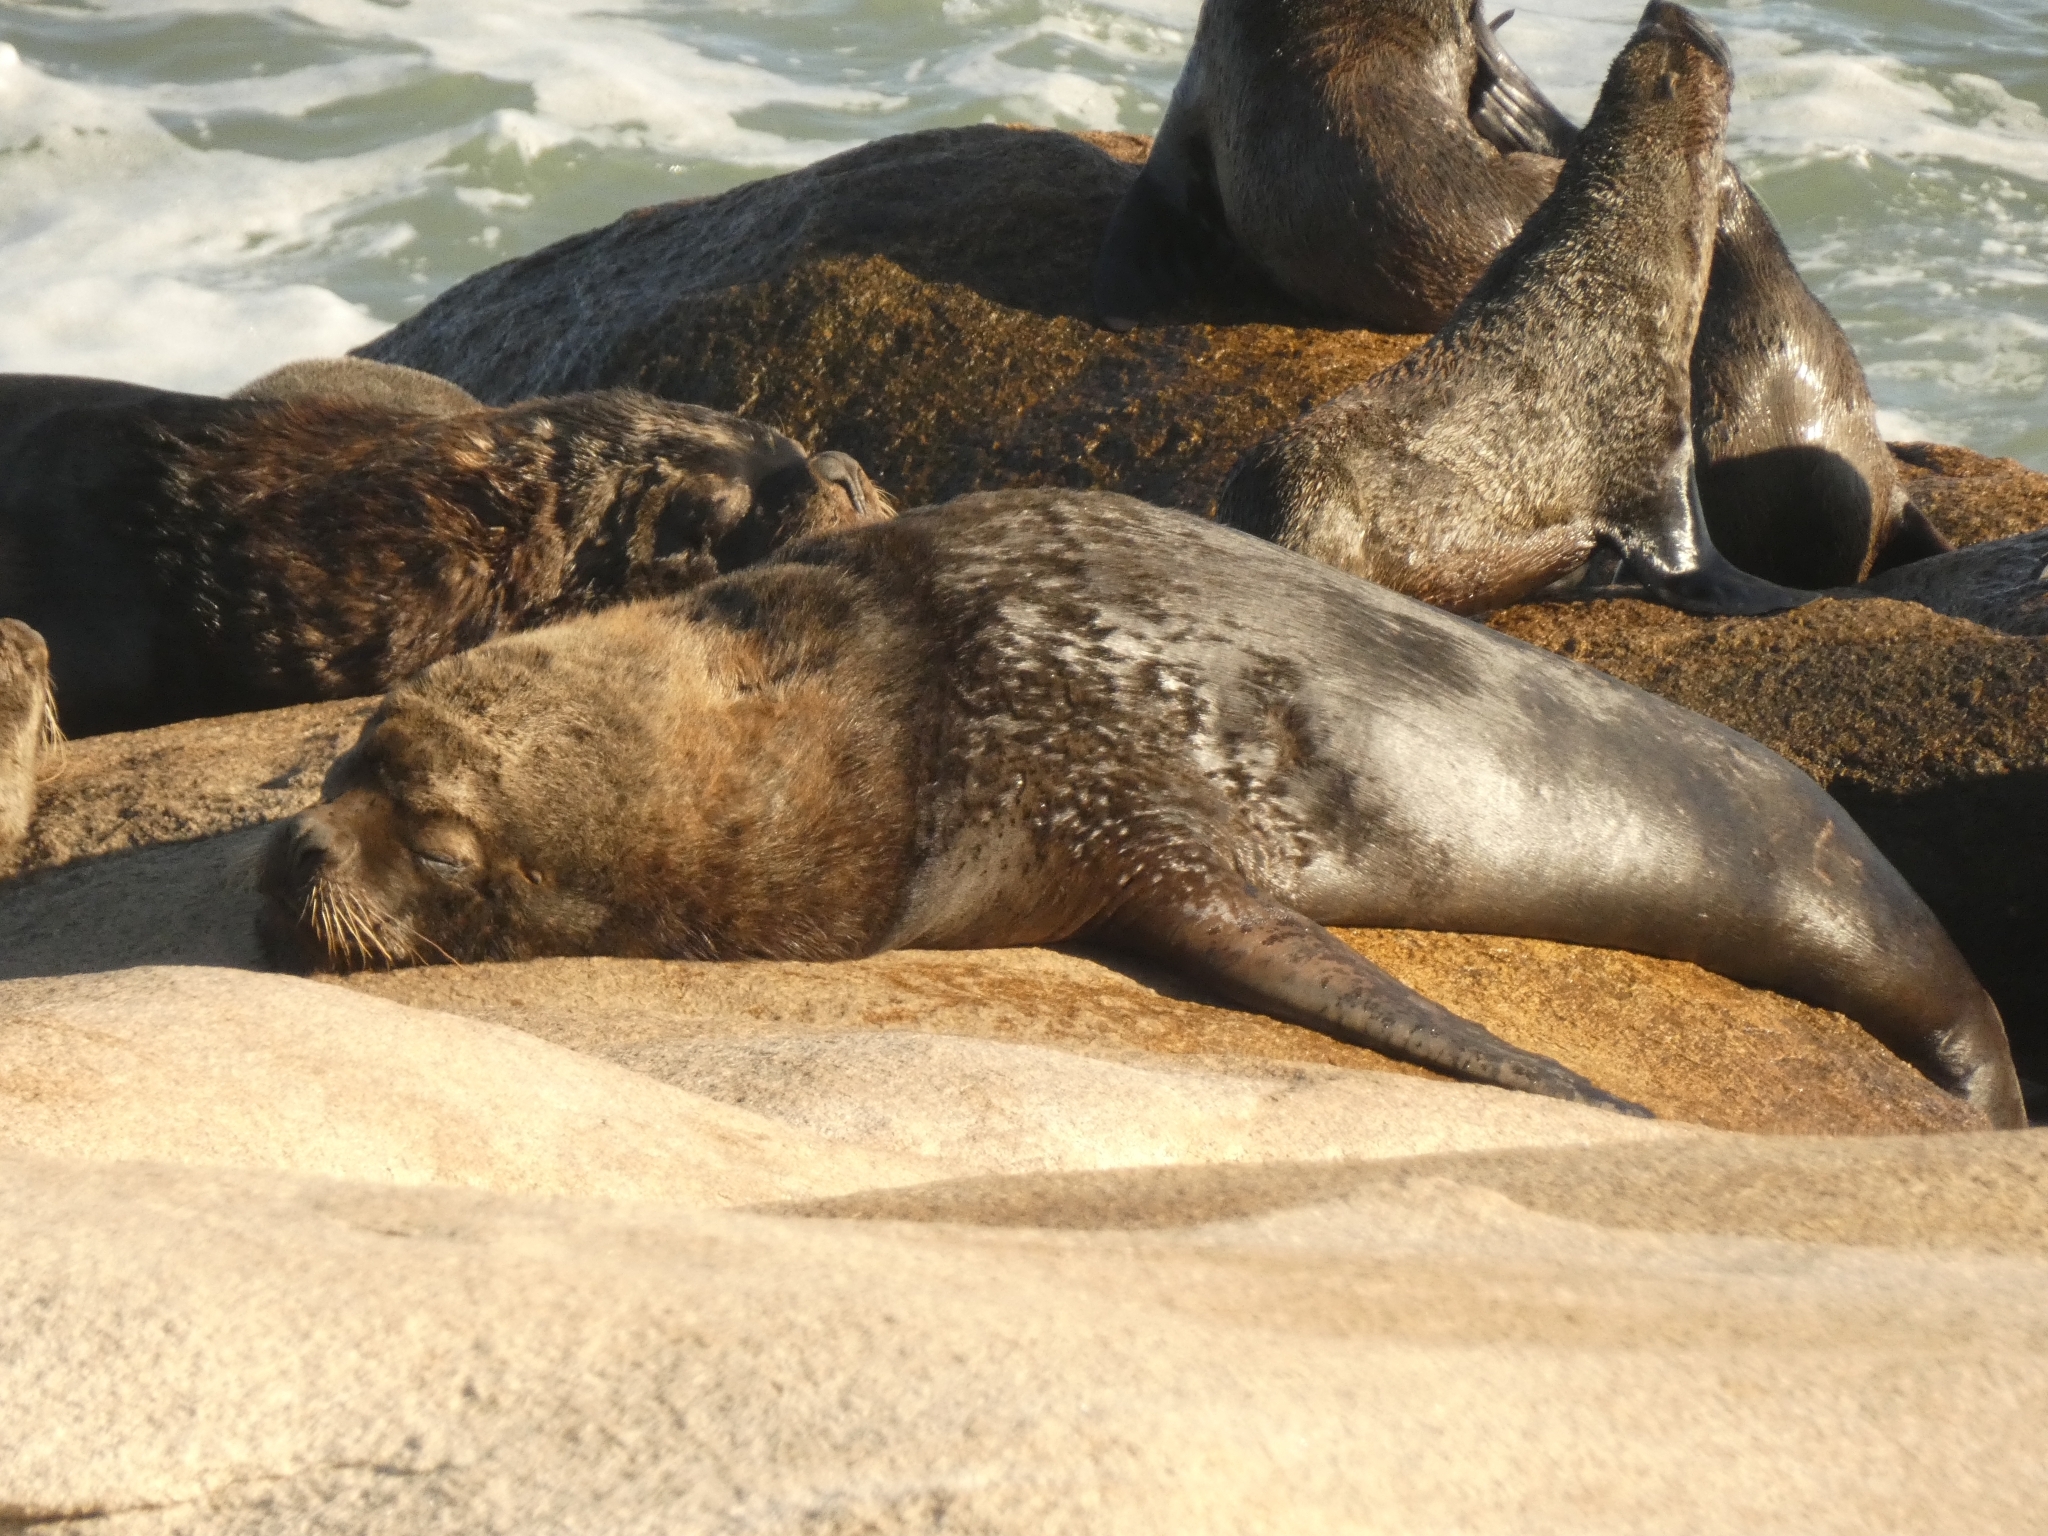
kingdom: Animalia
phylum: Chordata
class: Mammalia
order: Carnivora
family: Otariidae
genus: Otaria
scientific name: Otaria byronia
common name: South american sea lion
